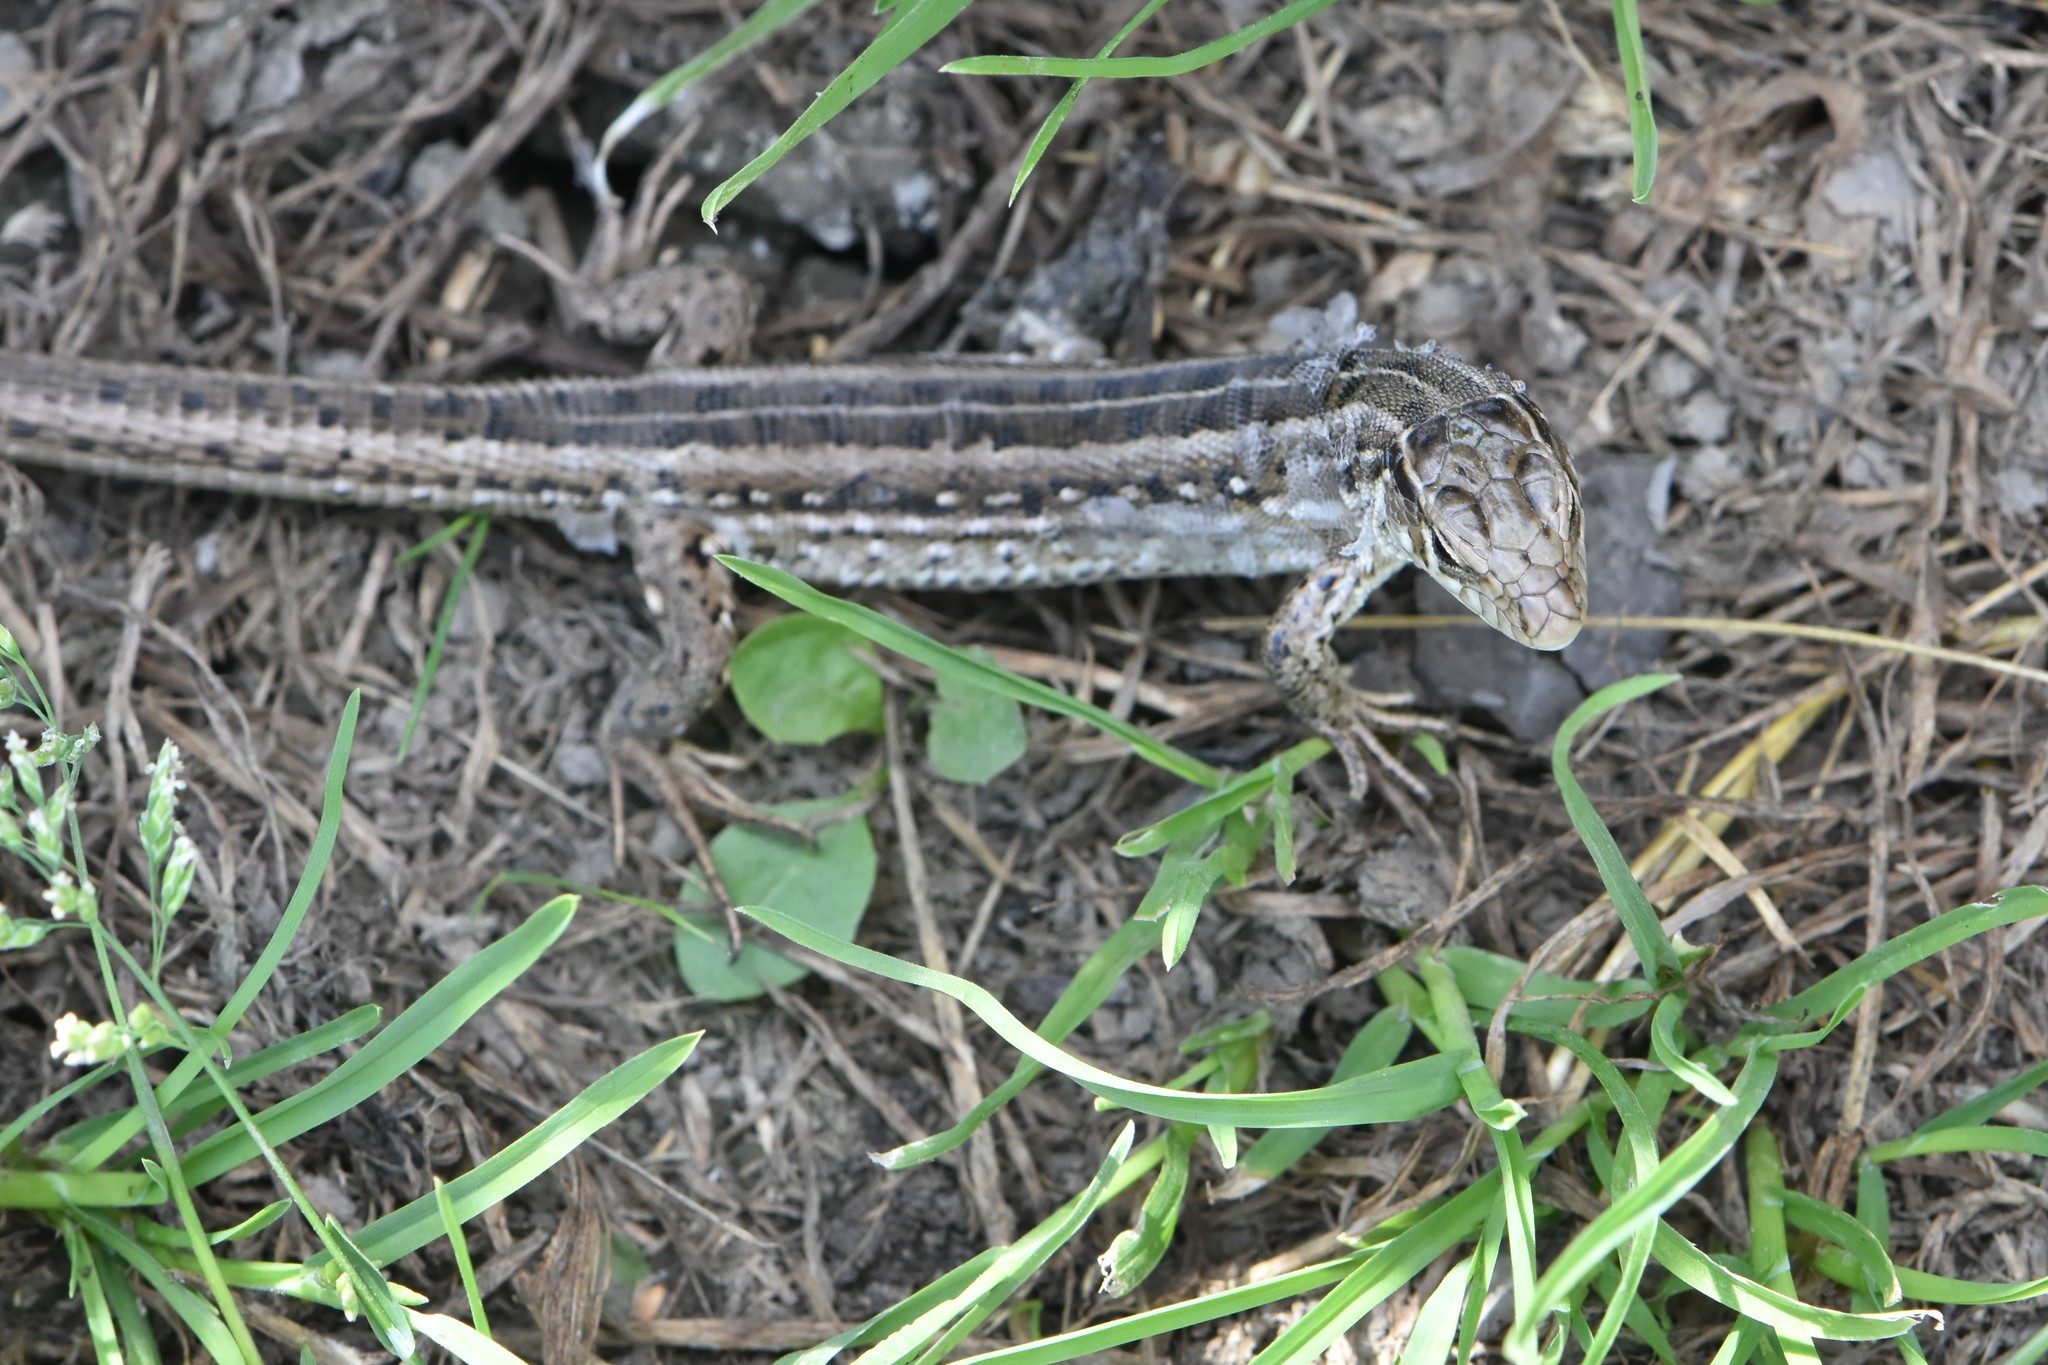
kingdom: Animalia
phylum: Chordata
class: Squamata
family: Lacertidae
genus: Lacerta
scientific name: Lacerta agilis
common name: Sand lizard
